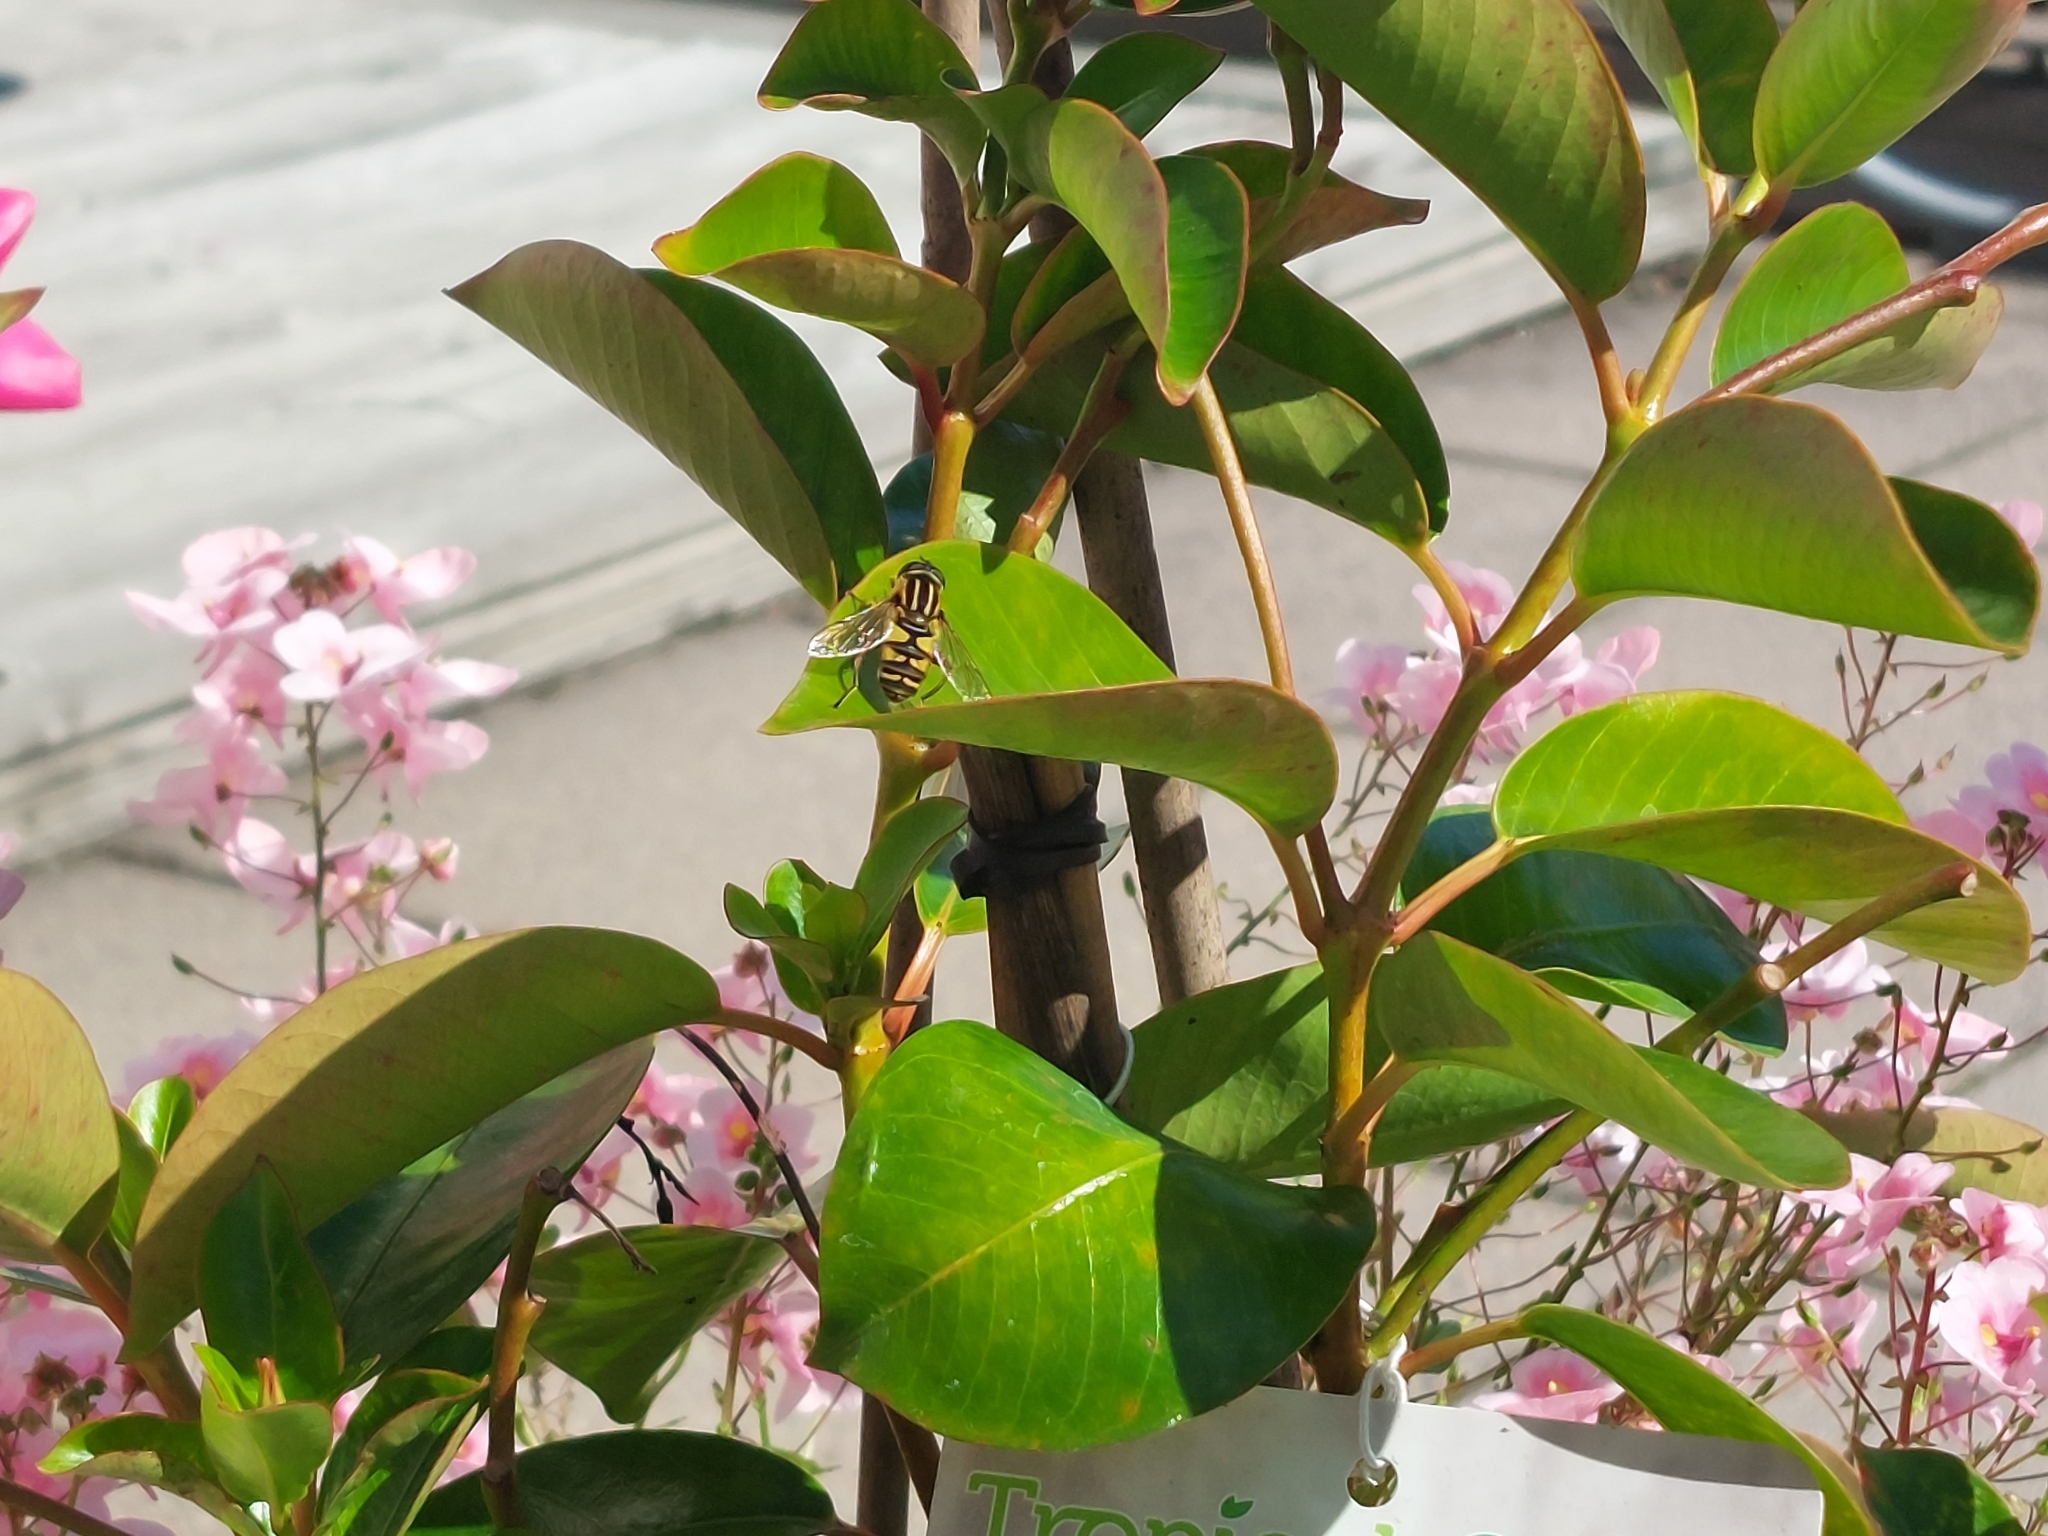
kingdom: Animalia
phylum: Arthropoda
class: Insecta
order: Diptera
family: Syrphidae
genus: Helophilus
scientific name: Helophilus pendulus
